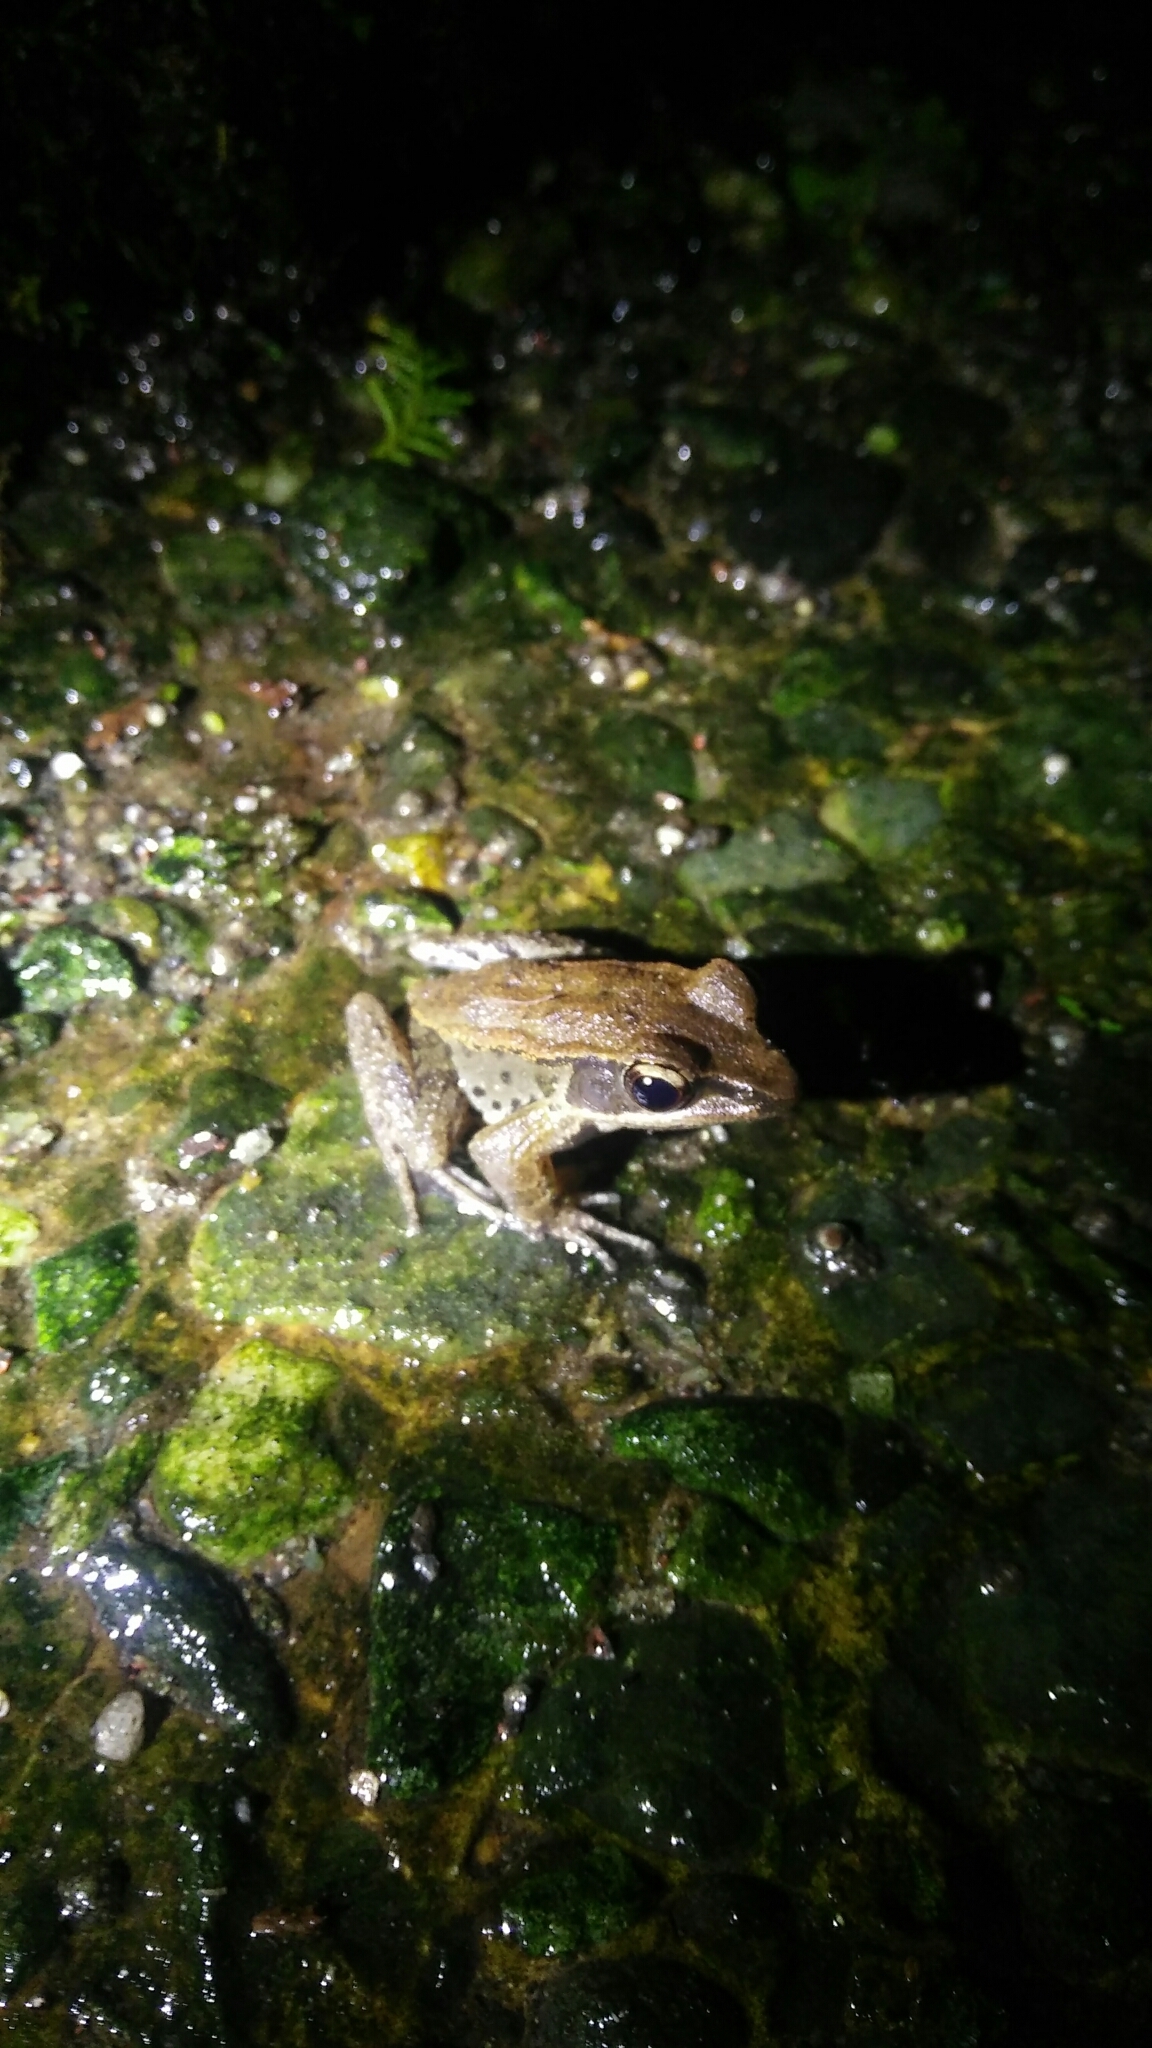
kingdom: Animalia
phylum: Chordata
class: Amphibia
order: Anura
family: Ranidae
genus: Hylarana
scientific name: Hylarana latouchii
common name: Broad-folded frog
